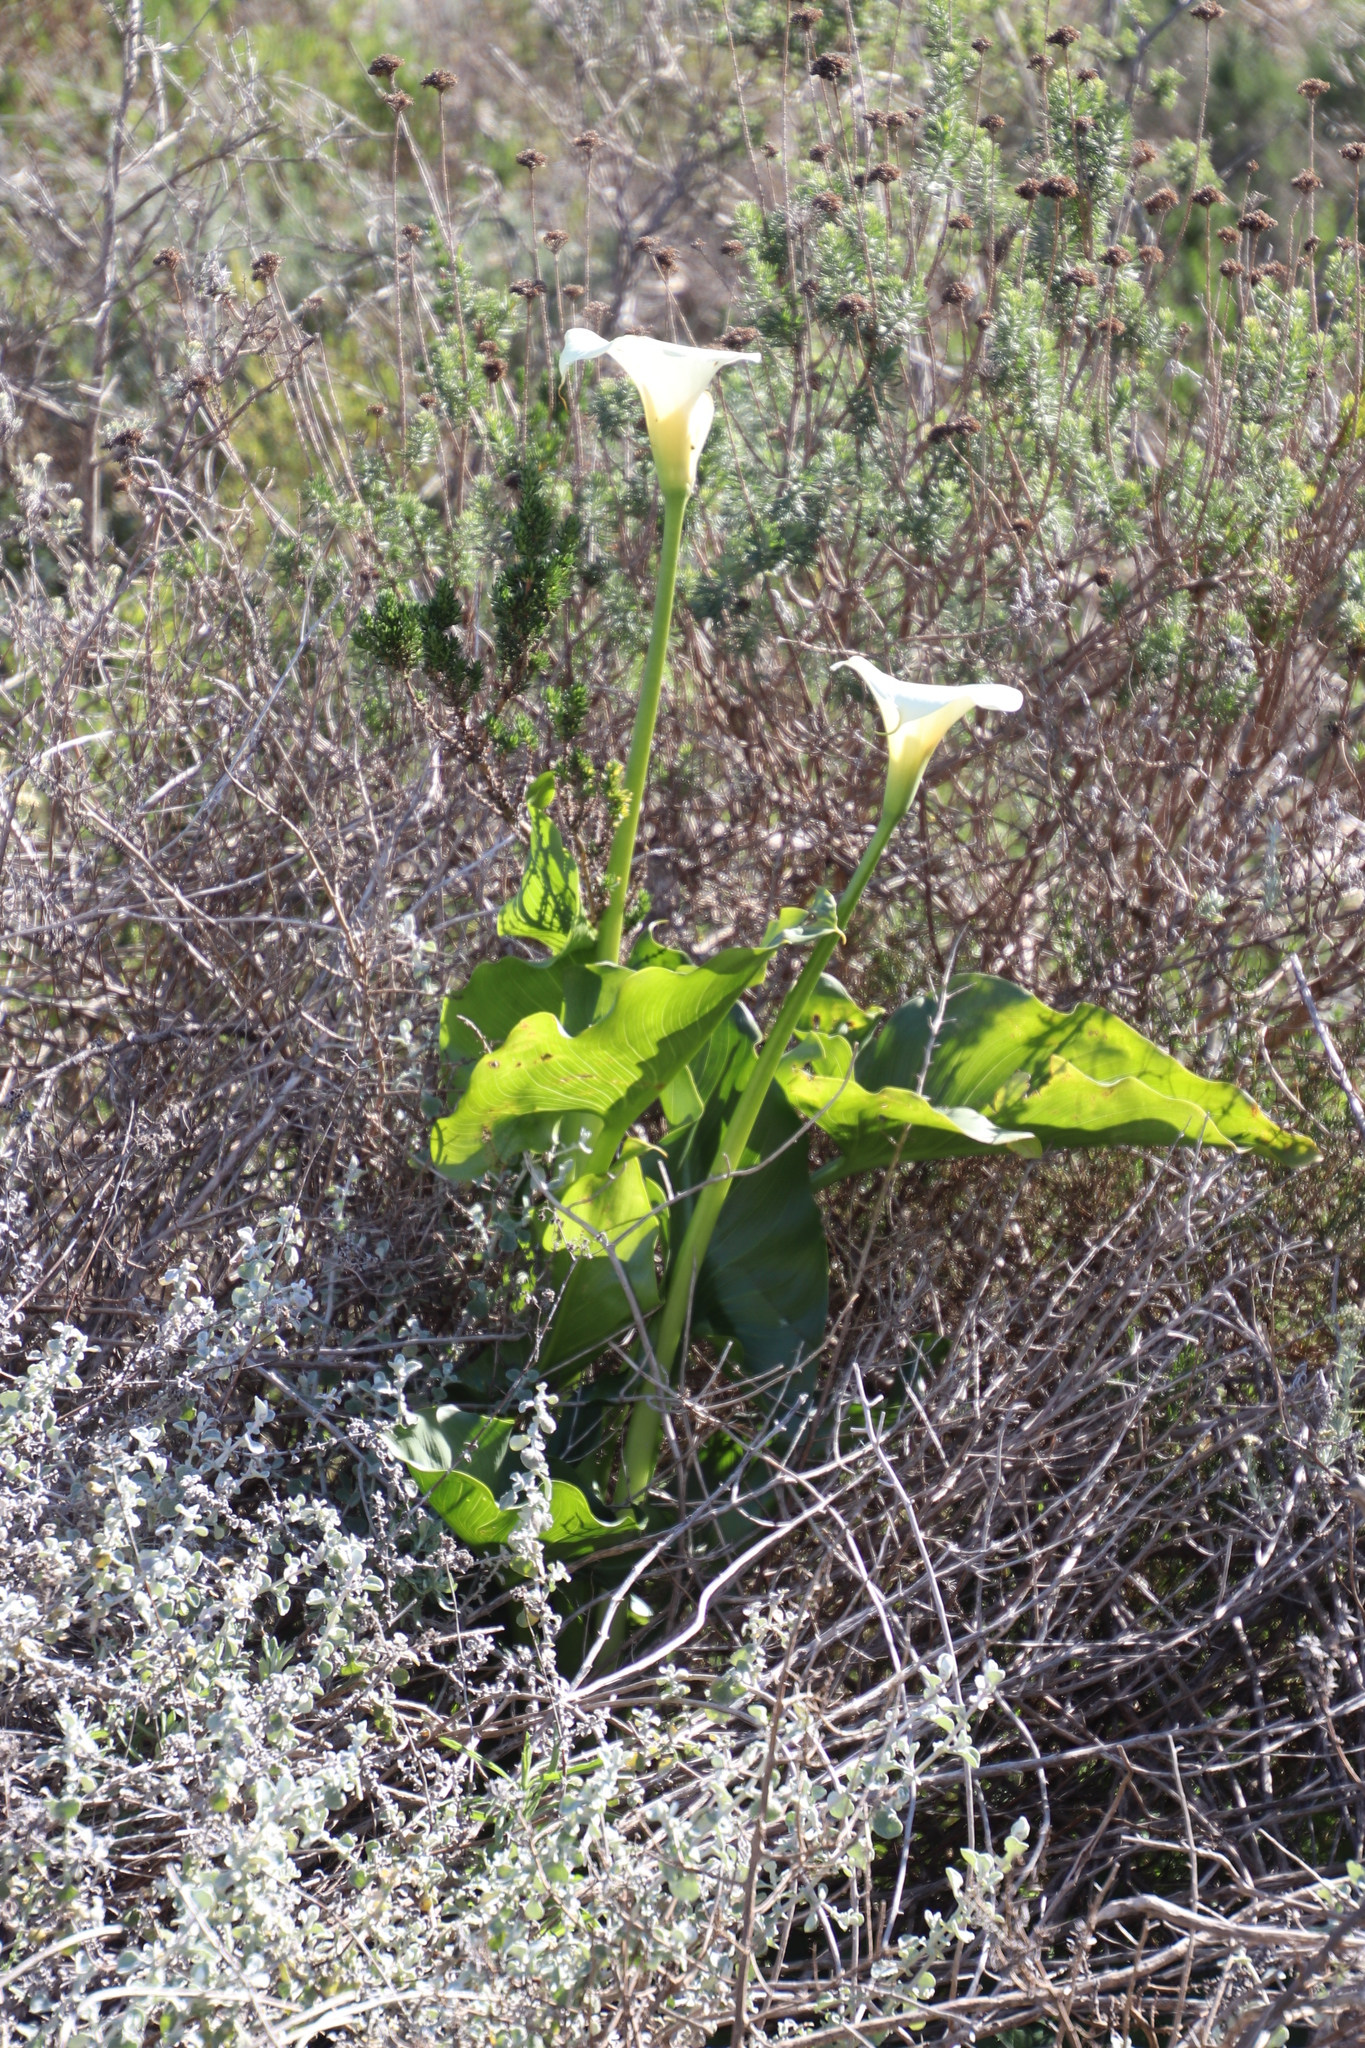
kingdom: Plantae
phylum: Tracheophyta
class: Liliopsida
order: Alismatales
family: Araceae
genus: Zantedeschia
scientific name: Zantedeschia aethiopica
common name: Altar-lily
